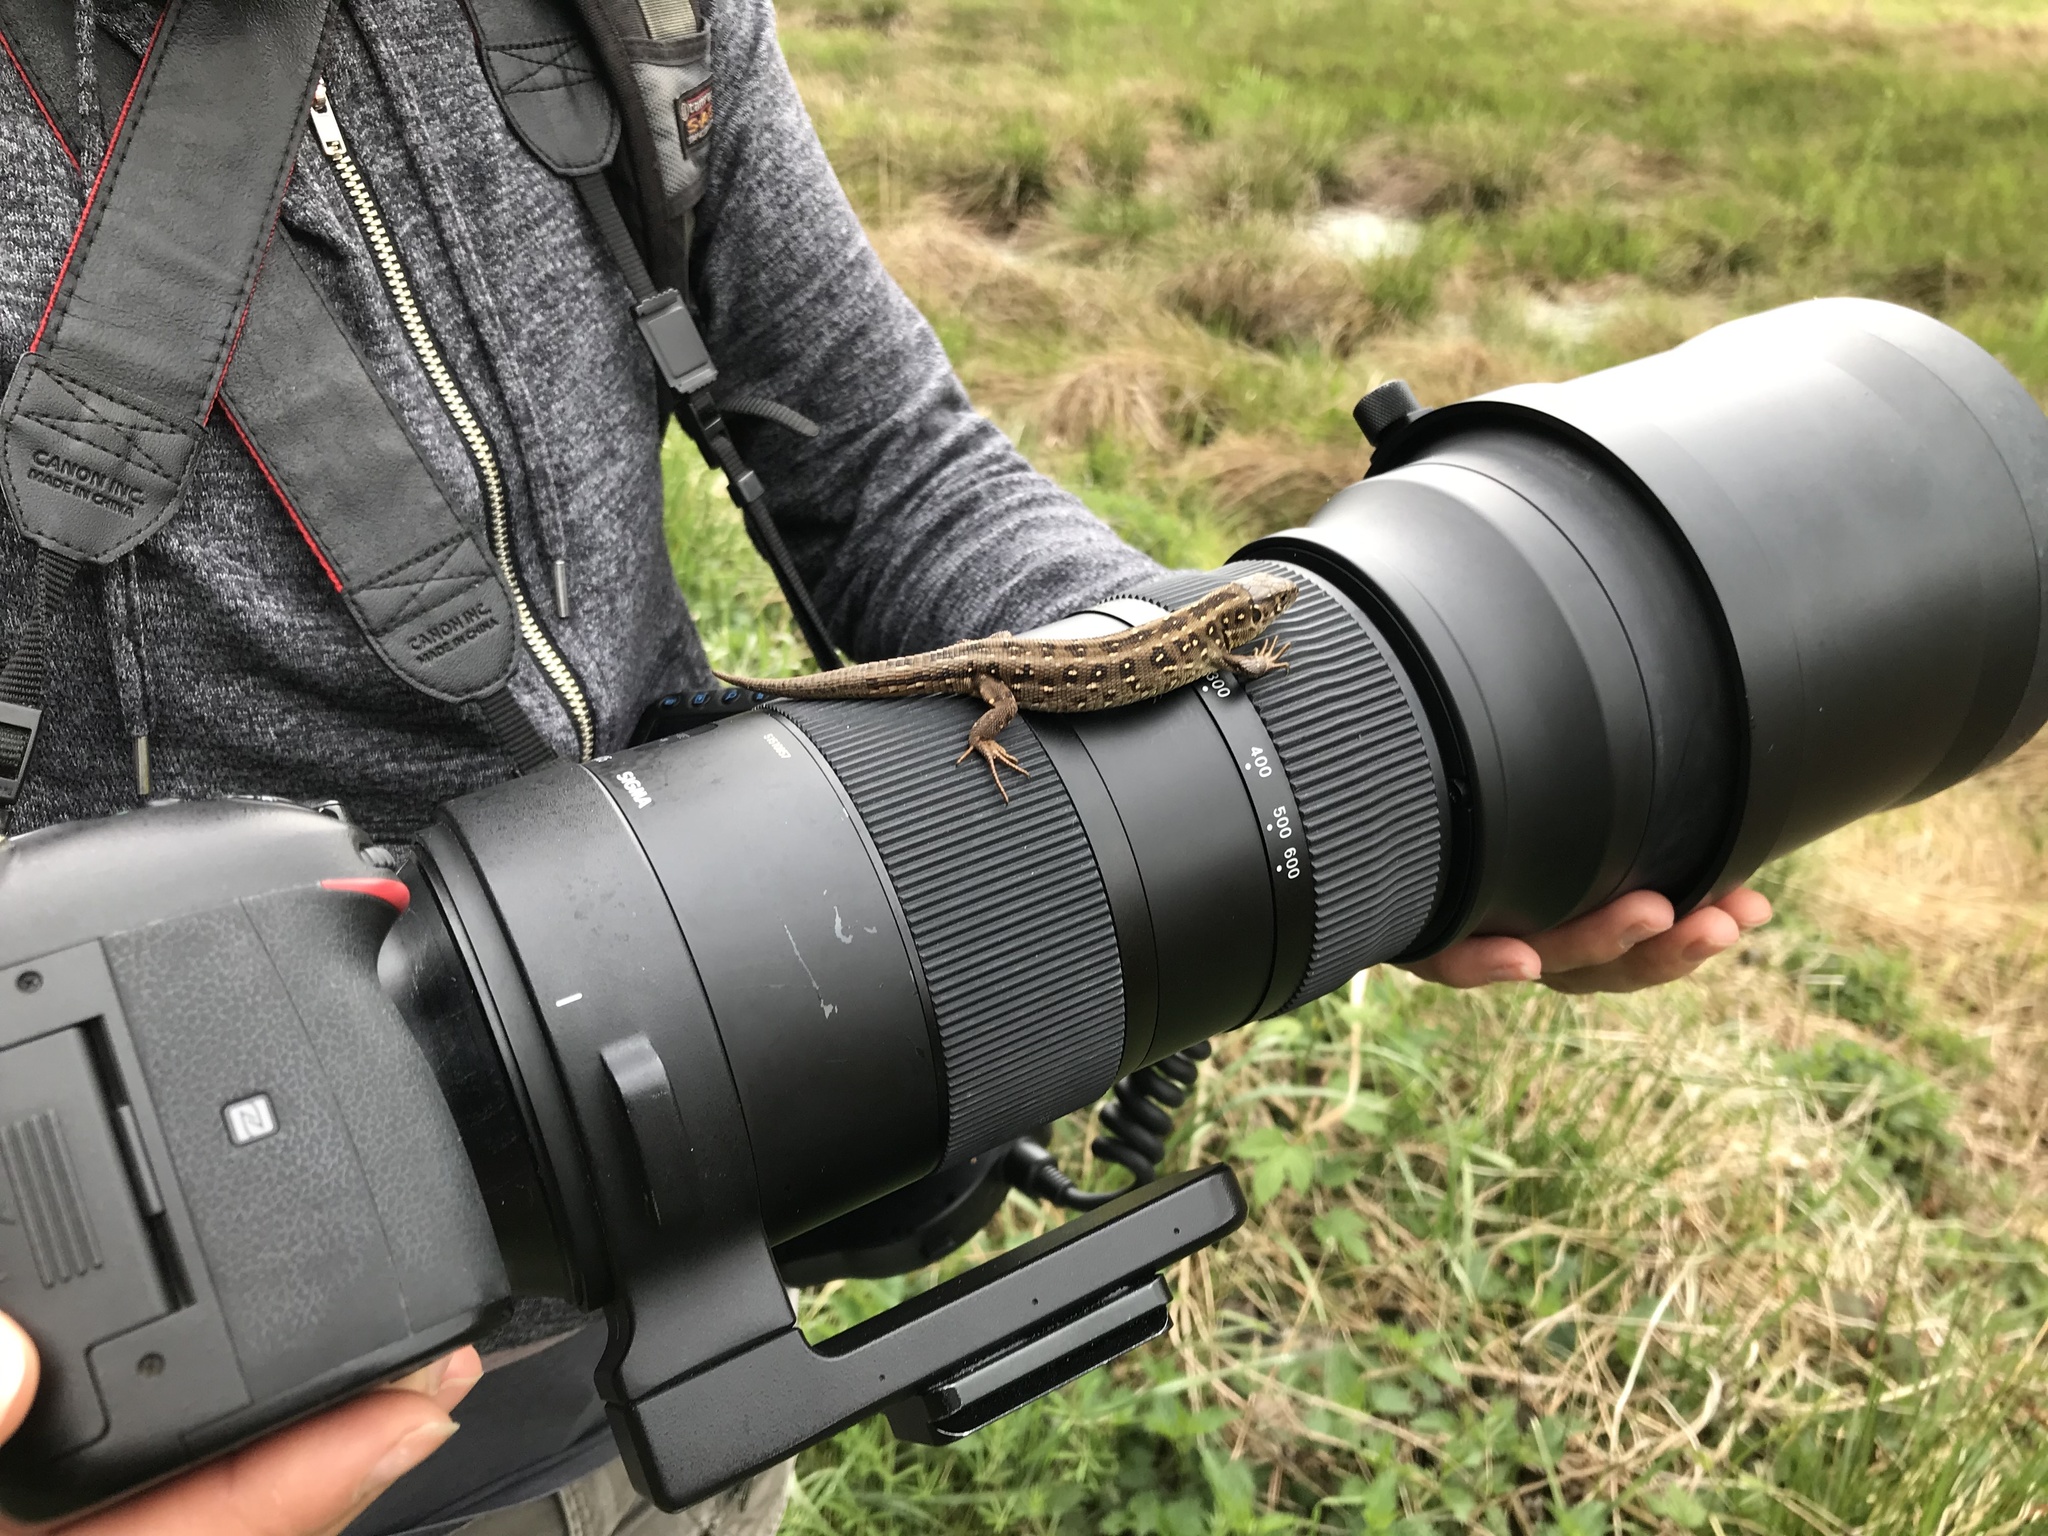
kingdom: Animalia
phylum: Chordata
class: Squamata
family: Lacertidae
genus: Lacerta
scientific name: Lacerta agilis
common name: Sand lizard
